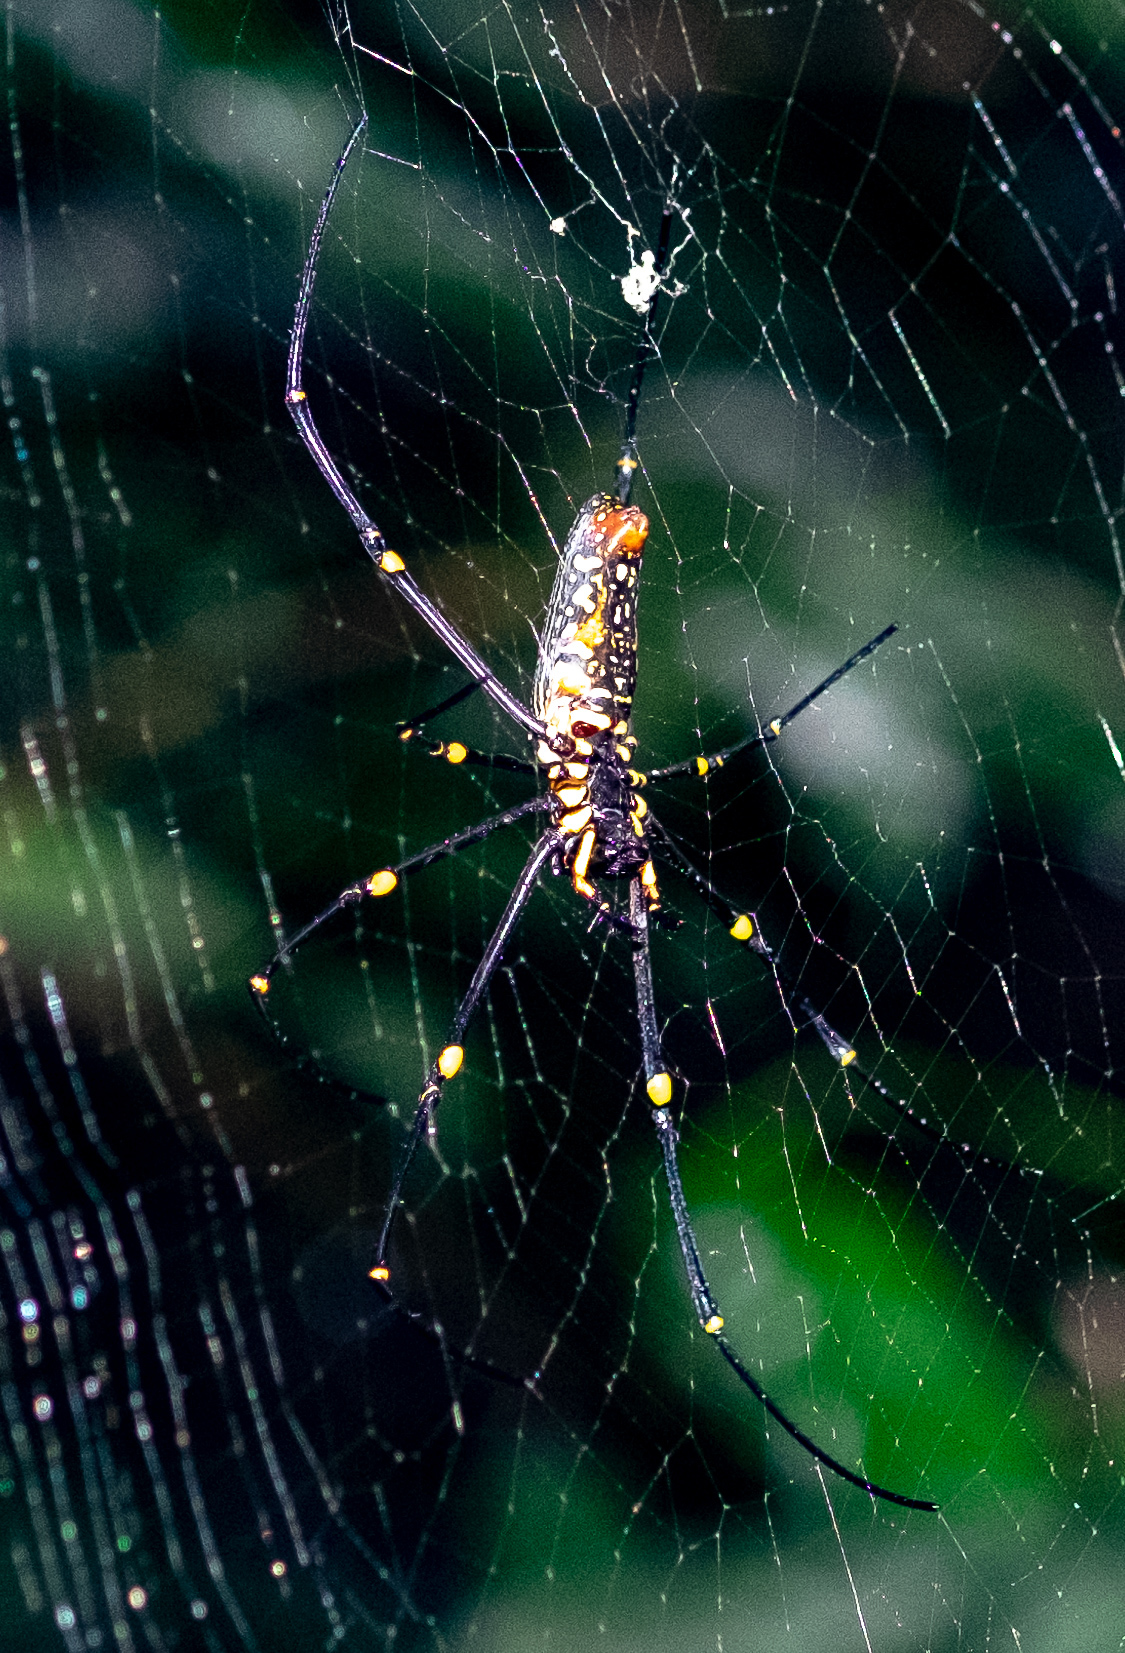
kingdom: Animalia
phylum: Arthropoda
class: Arachnida
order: Araneae
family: Araneidae
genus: Nephila
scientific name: Nephila pilipes
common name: Giant golden orb weaver
